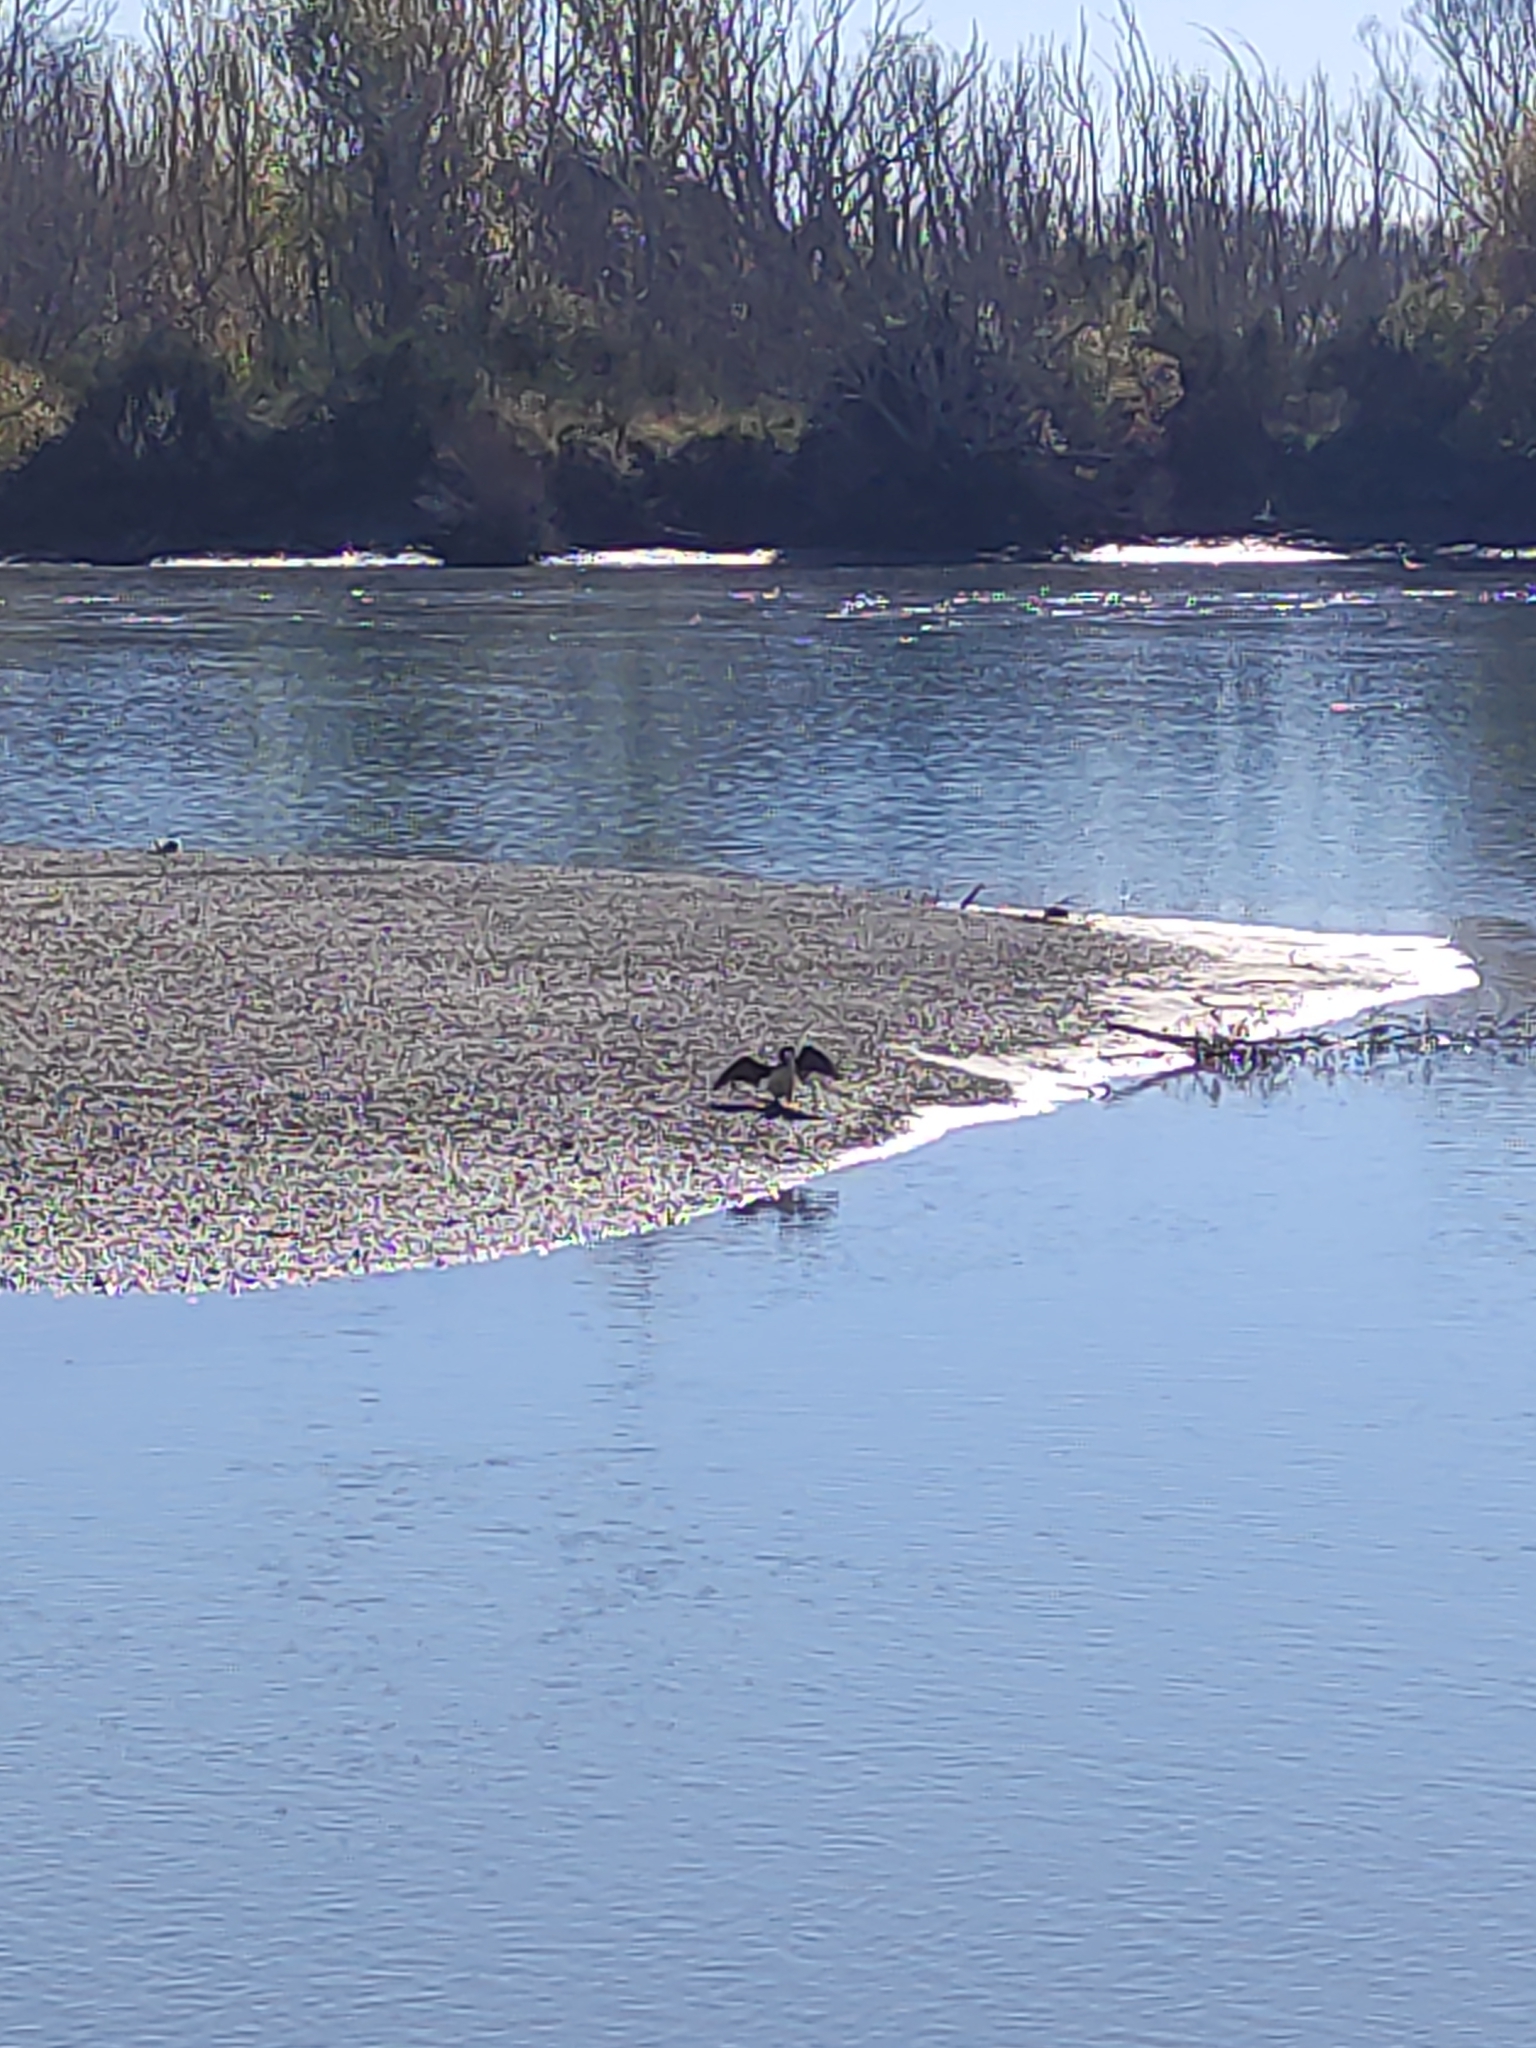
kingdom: Animalia
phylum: Chordata
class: Aves
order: Suliformes
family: Phalacrocoracidae
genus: Phalacrocorax
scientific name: Phalacrocorax varius
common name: Pied cormorant
